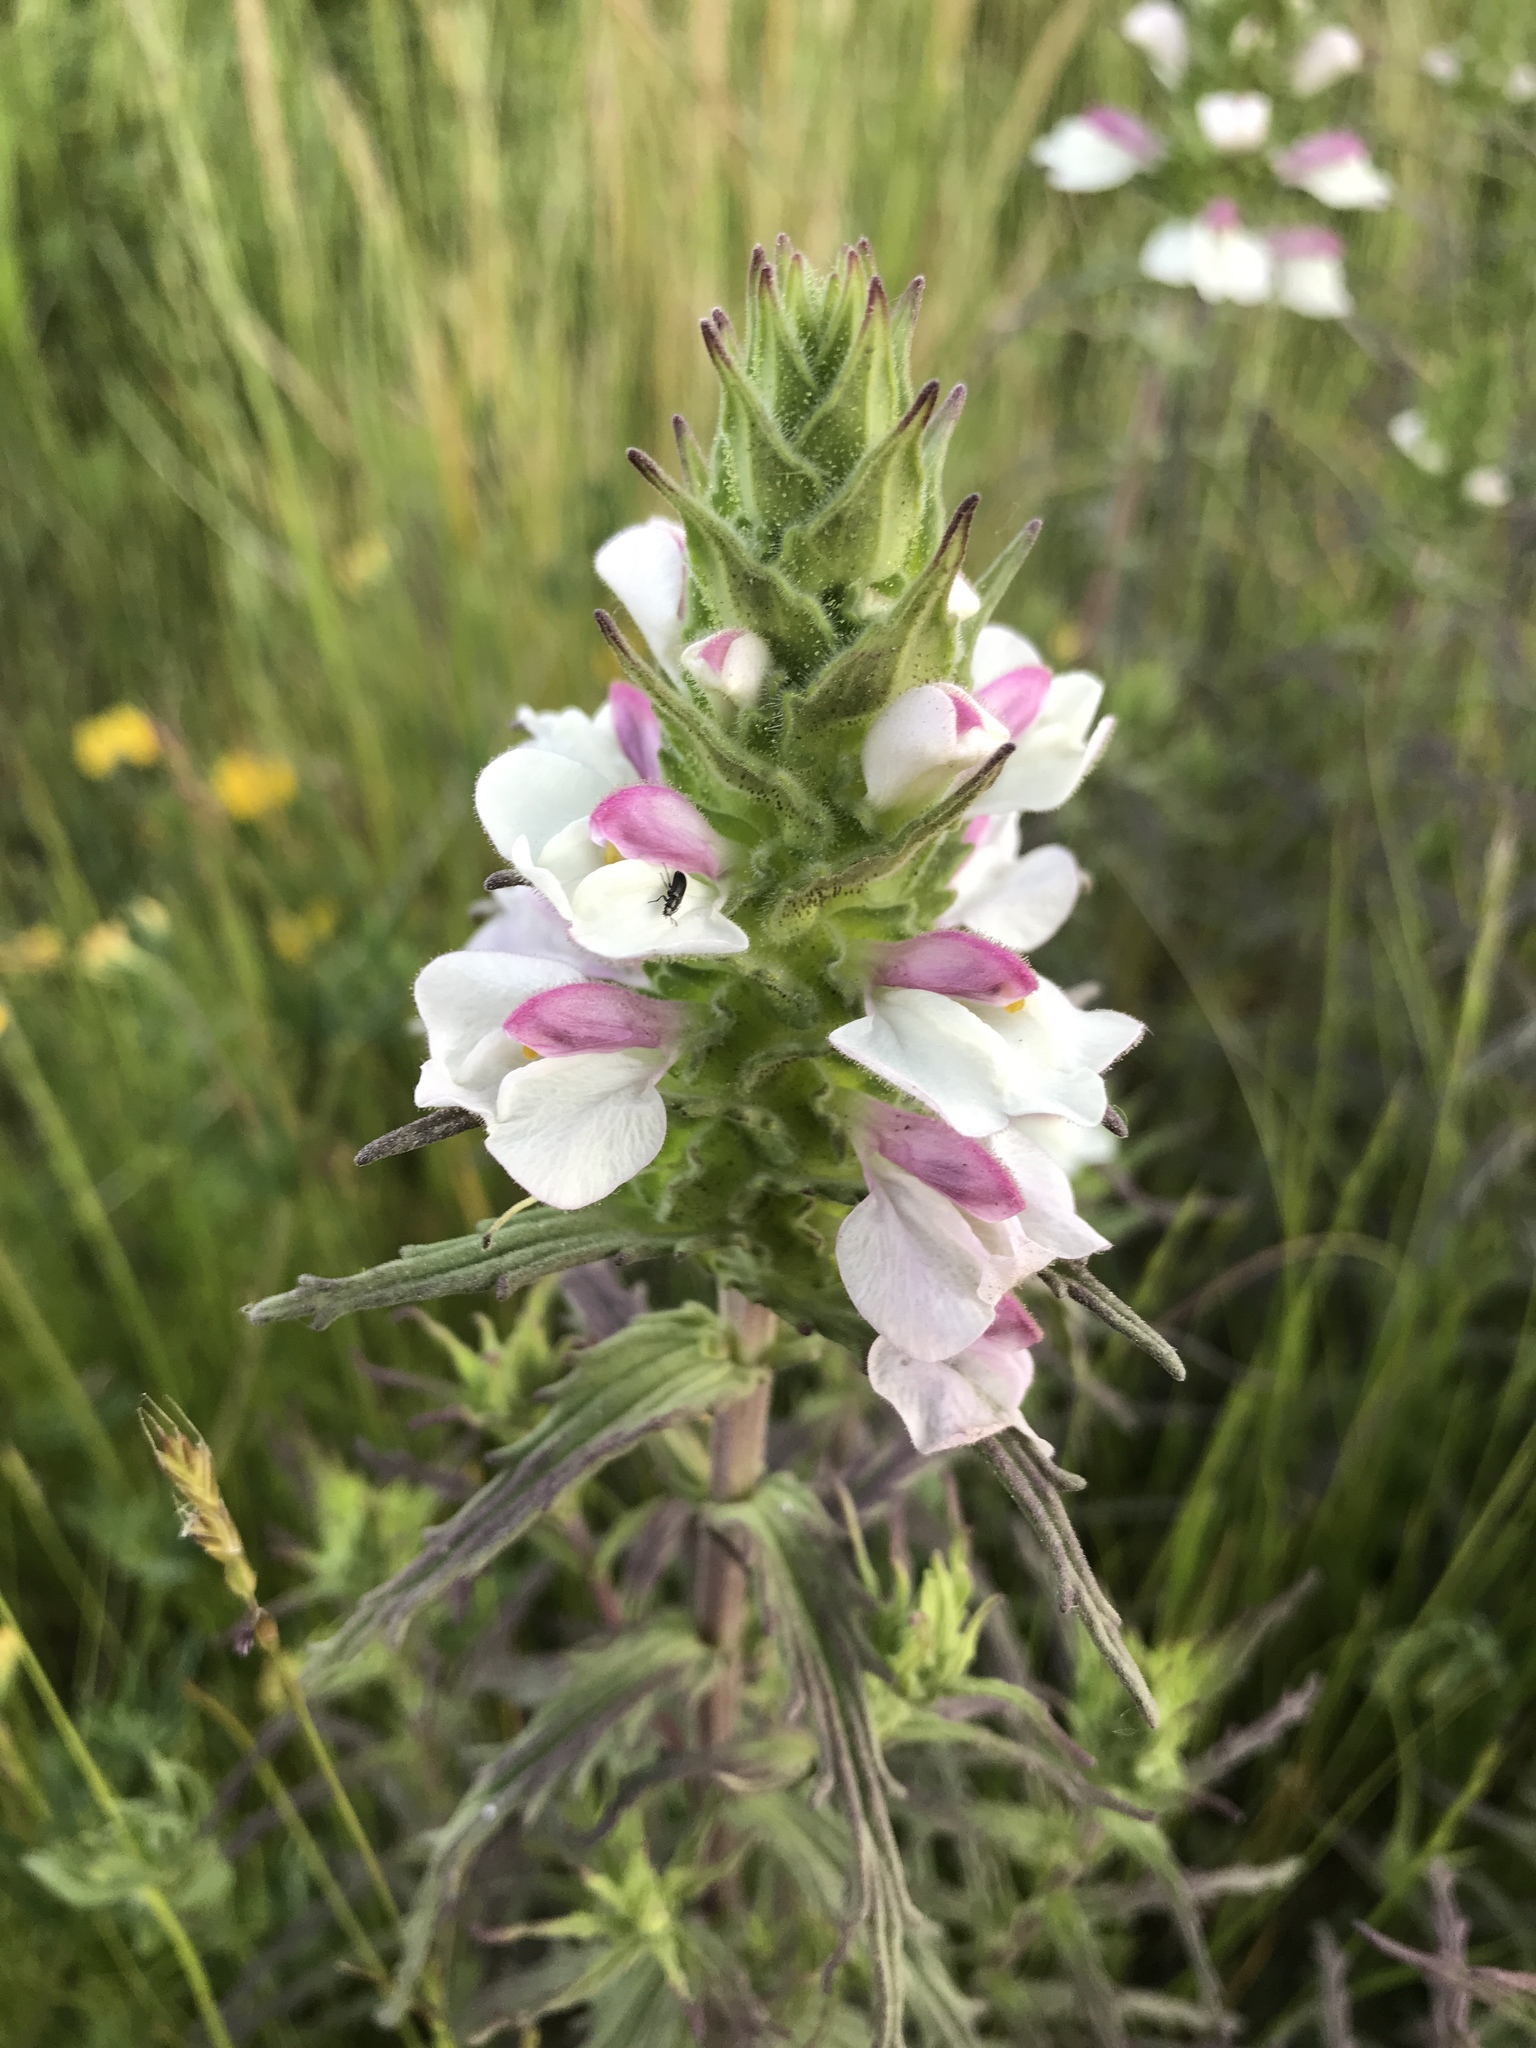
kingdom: Plantae
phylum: Tracheophyta
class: Magnoliopsida
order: Lamiales
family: Orobanchaceae
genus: Bellardia
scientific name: Bellardia trixago
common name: Mediterranean lineseed
